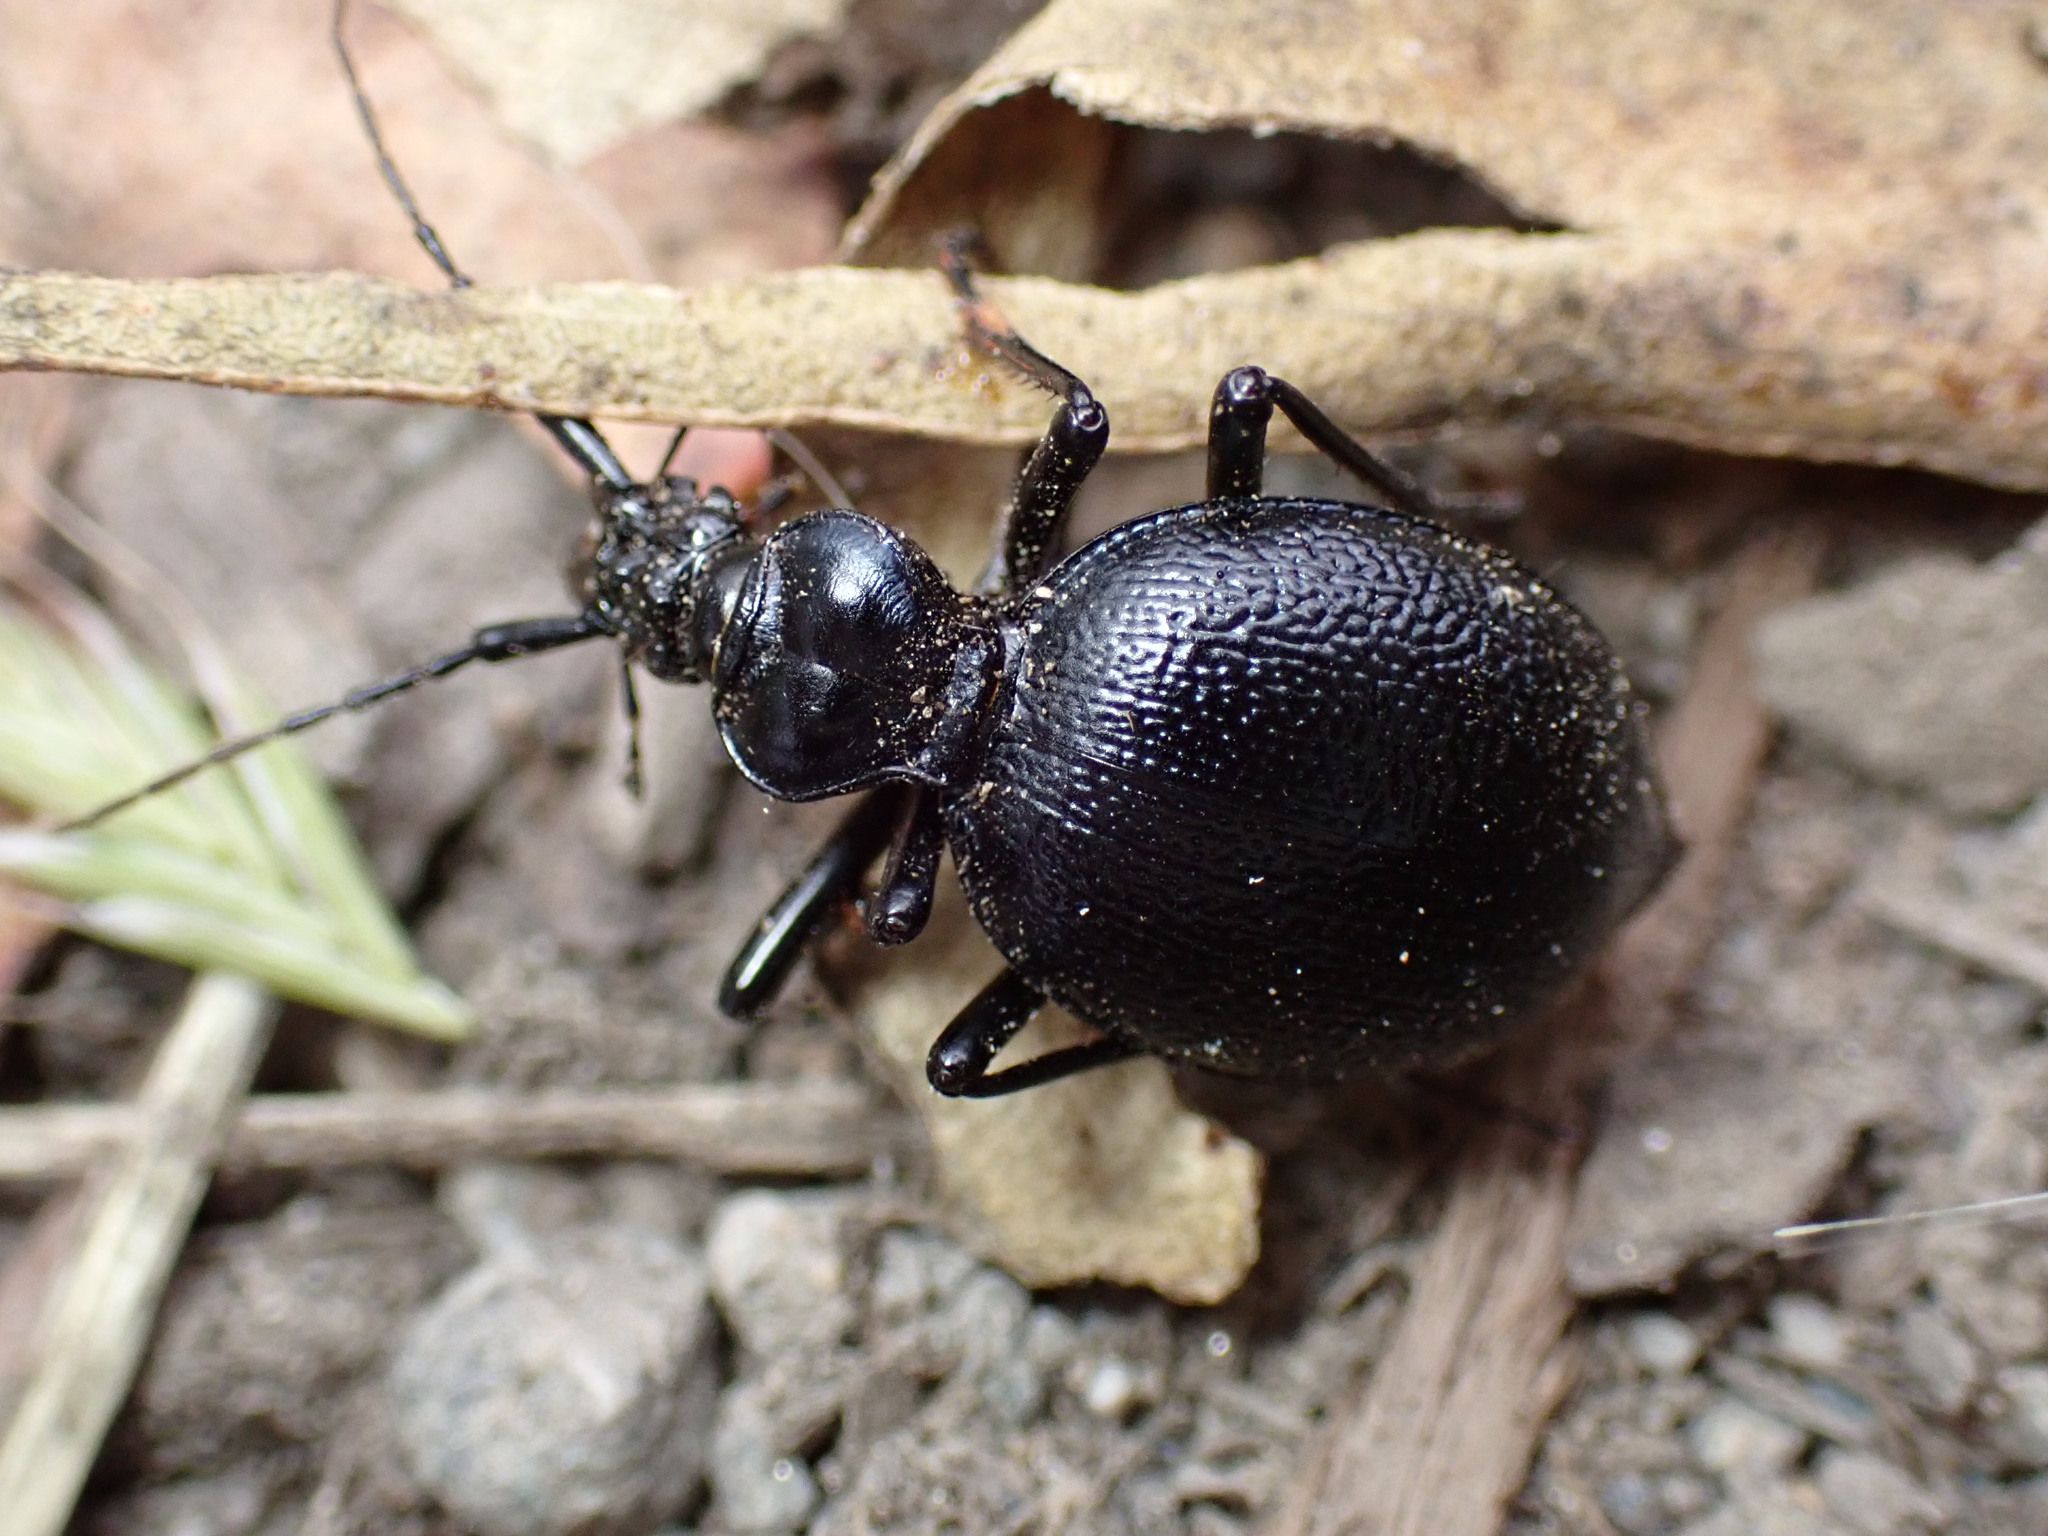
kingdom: Animalia
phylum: Arthropoda
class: Insecta
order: Coleoptera
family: Carabidae
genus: Scaphinotus
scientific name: Scaphinotus cristatus
